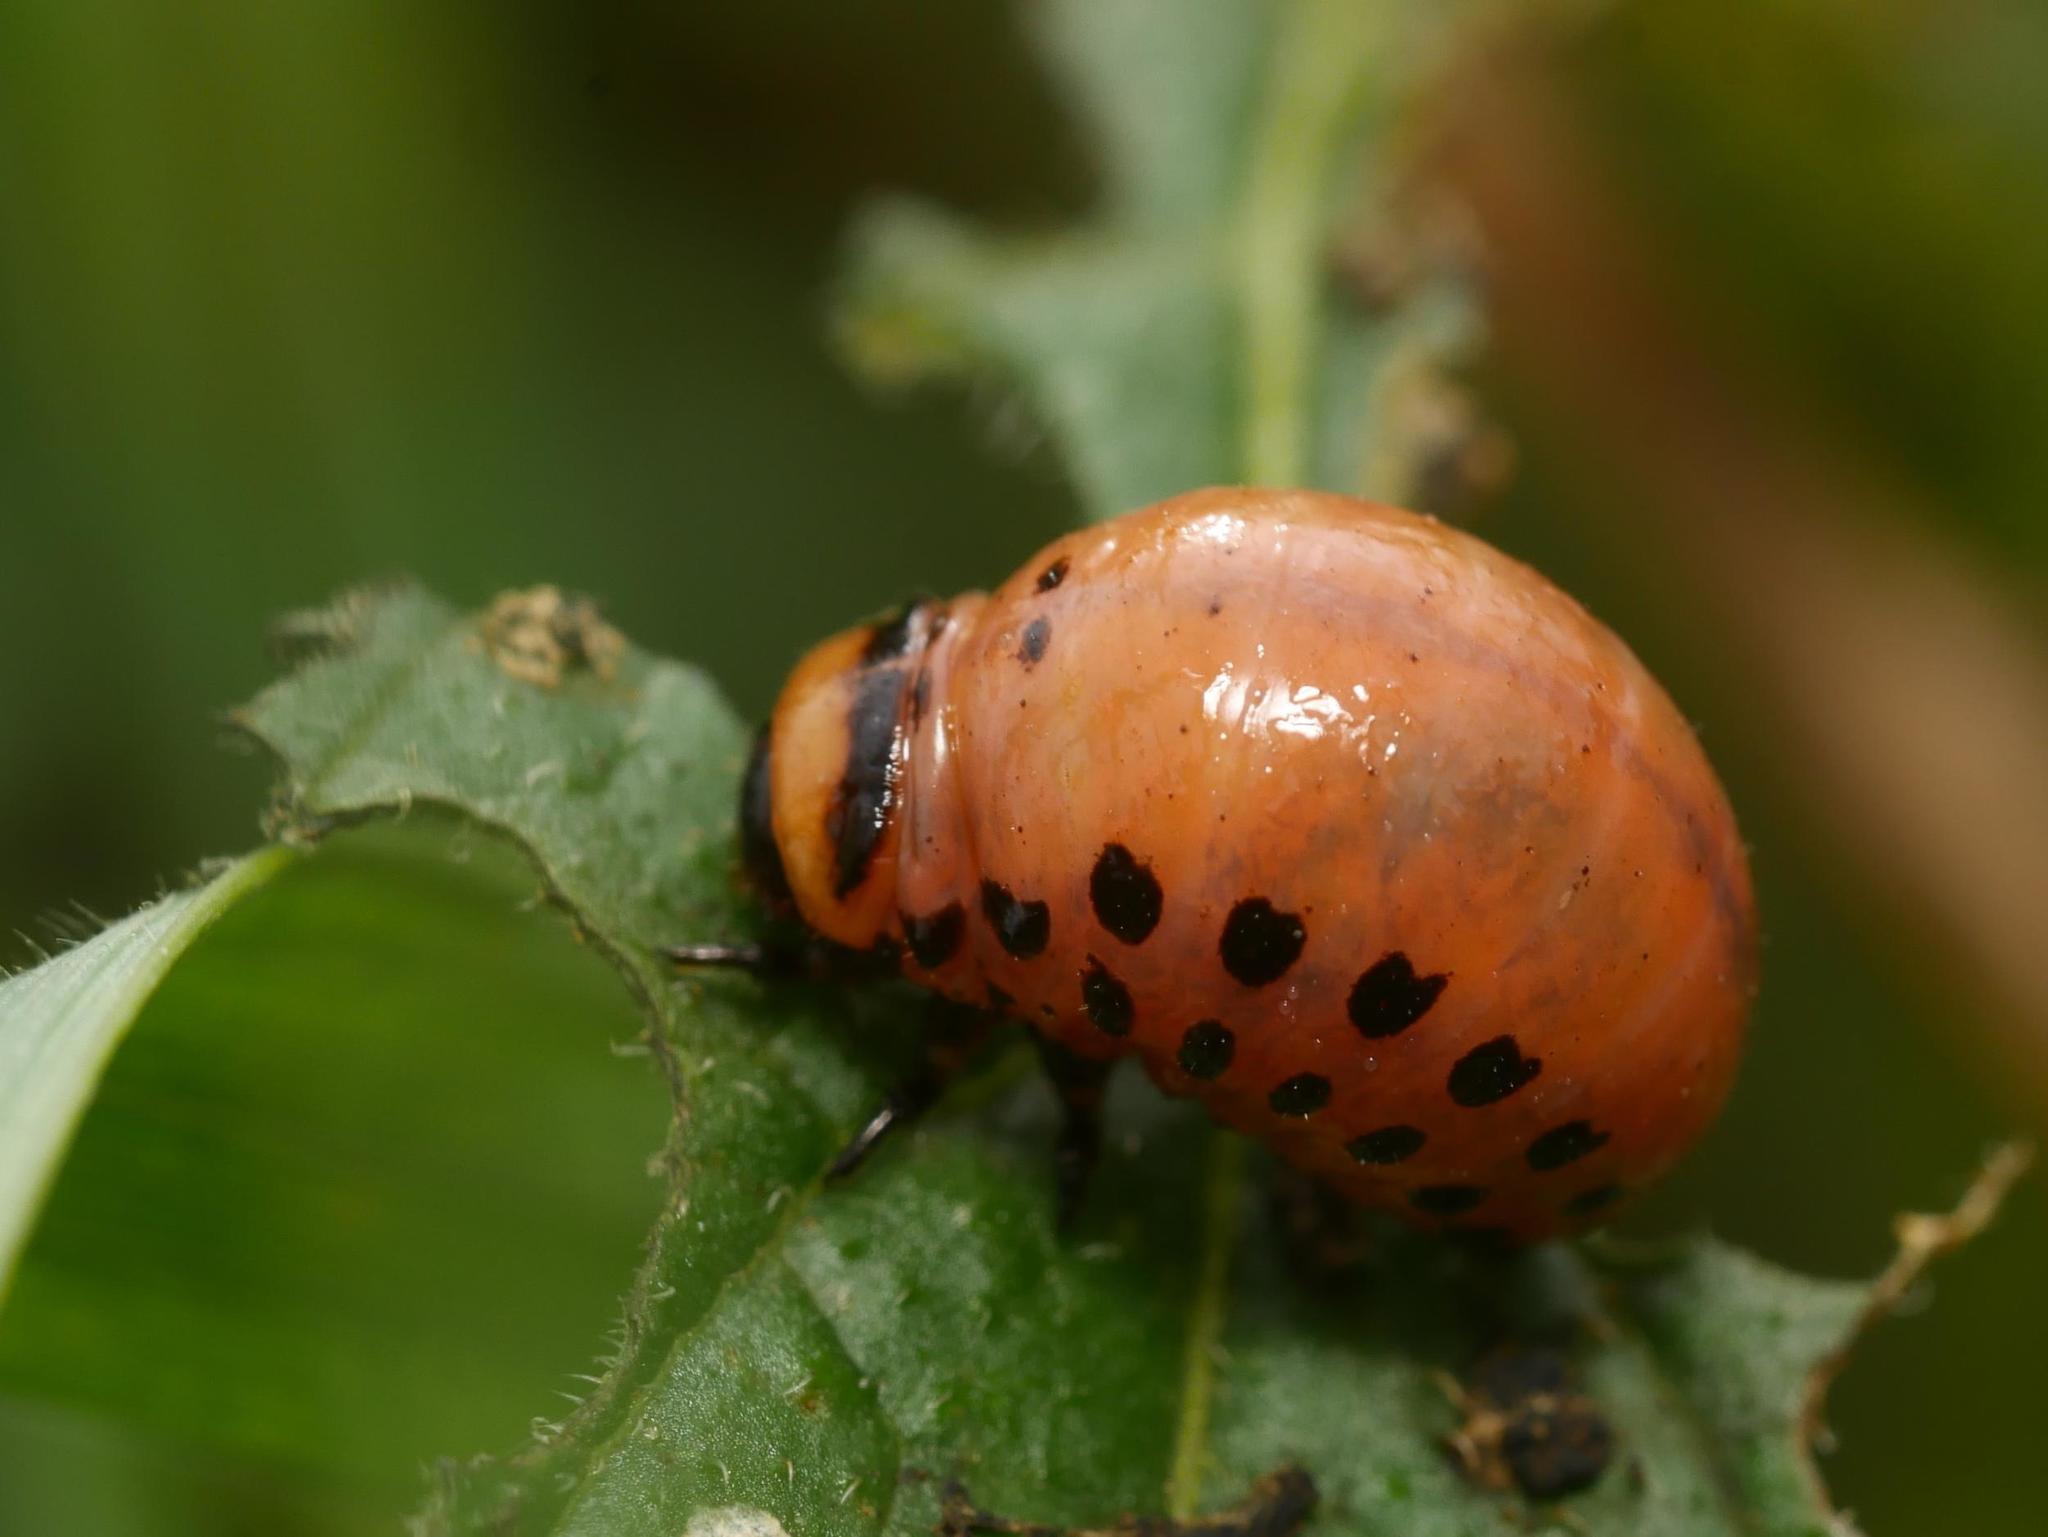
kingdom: Animalia
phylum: Arthropoda
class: Insecta
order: Coleoptera
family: Chrysomelidae
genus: Leptinotarsa
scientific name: Leptinotarsa decemlineata
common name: Colorado potato beetle
